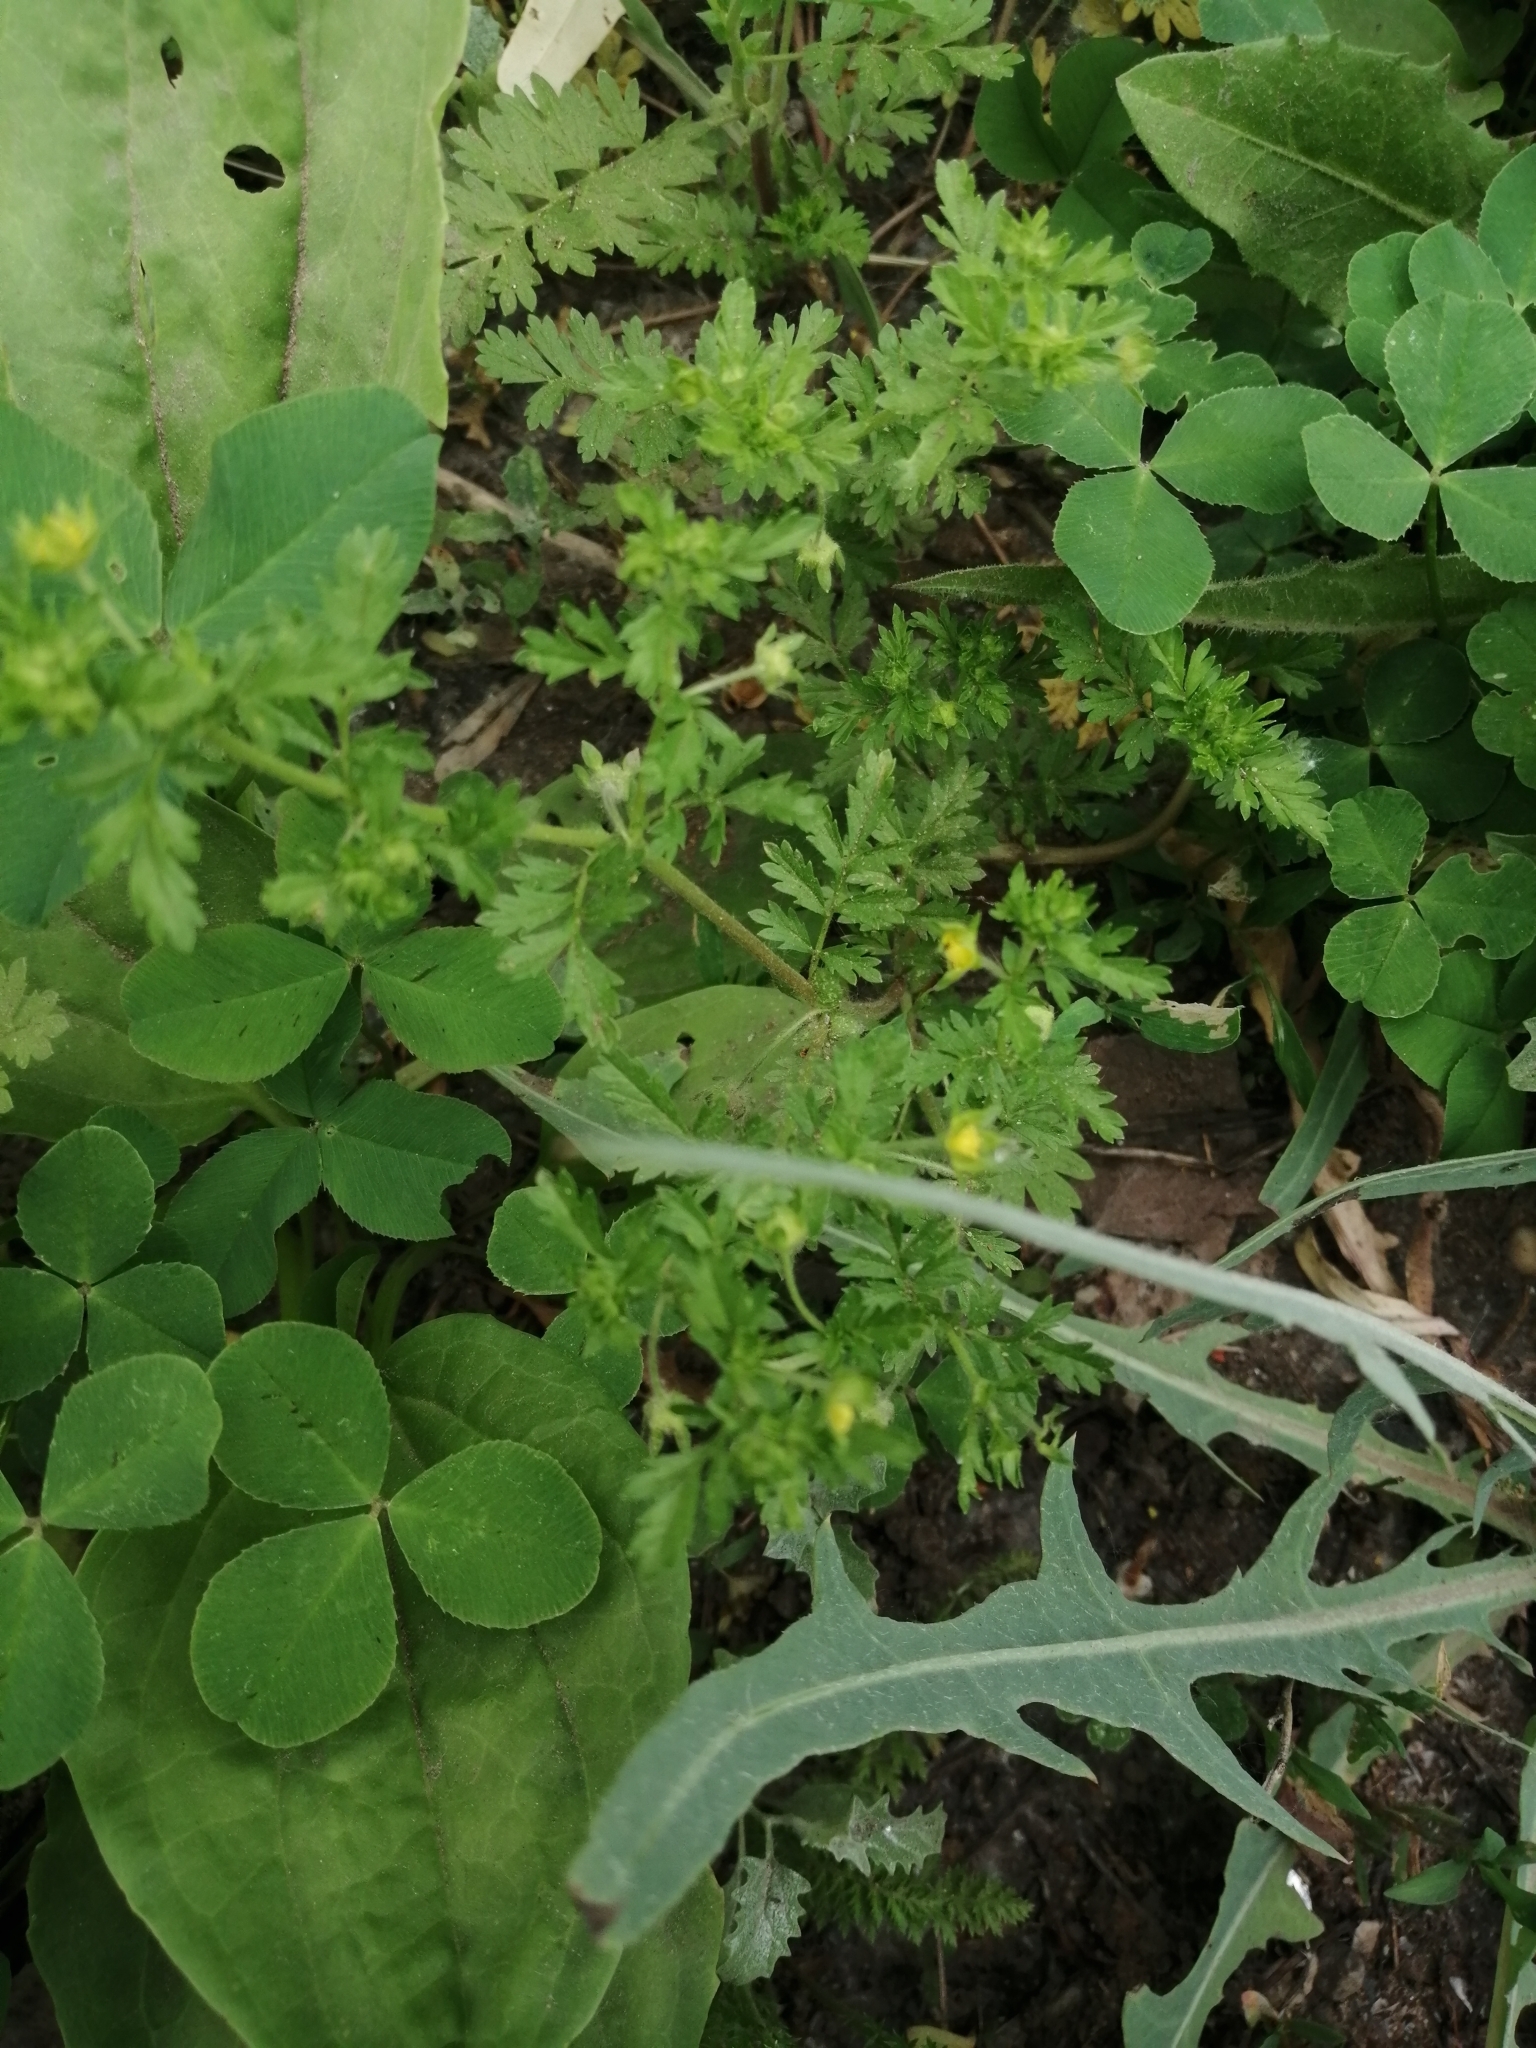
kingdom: Plantae
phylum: Tracheophyta
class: Magnoliopsida
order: Rosales
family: Rosaceae
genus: Potentilla
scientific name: Potentilla supina
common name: Prostrate cinquefoil
